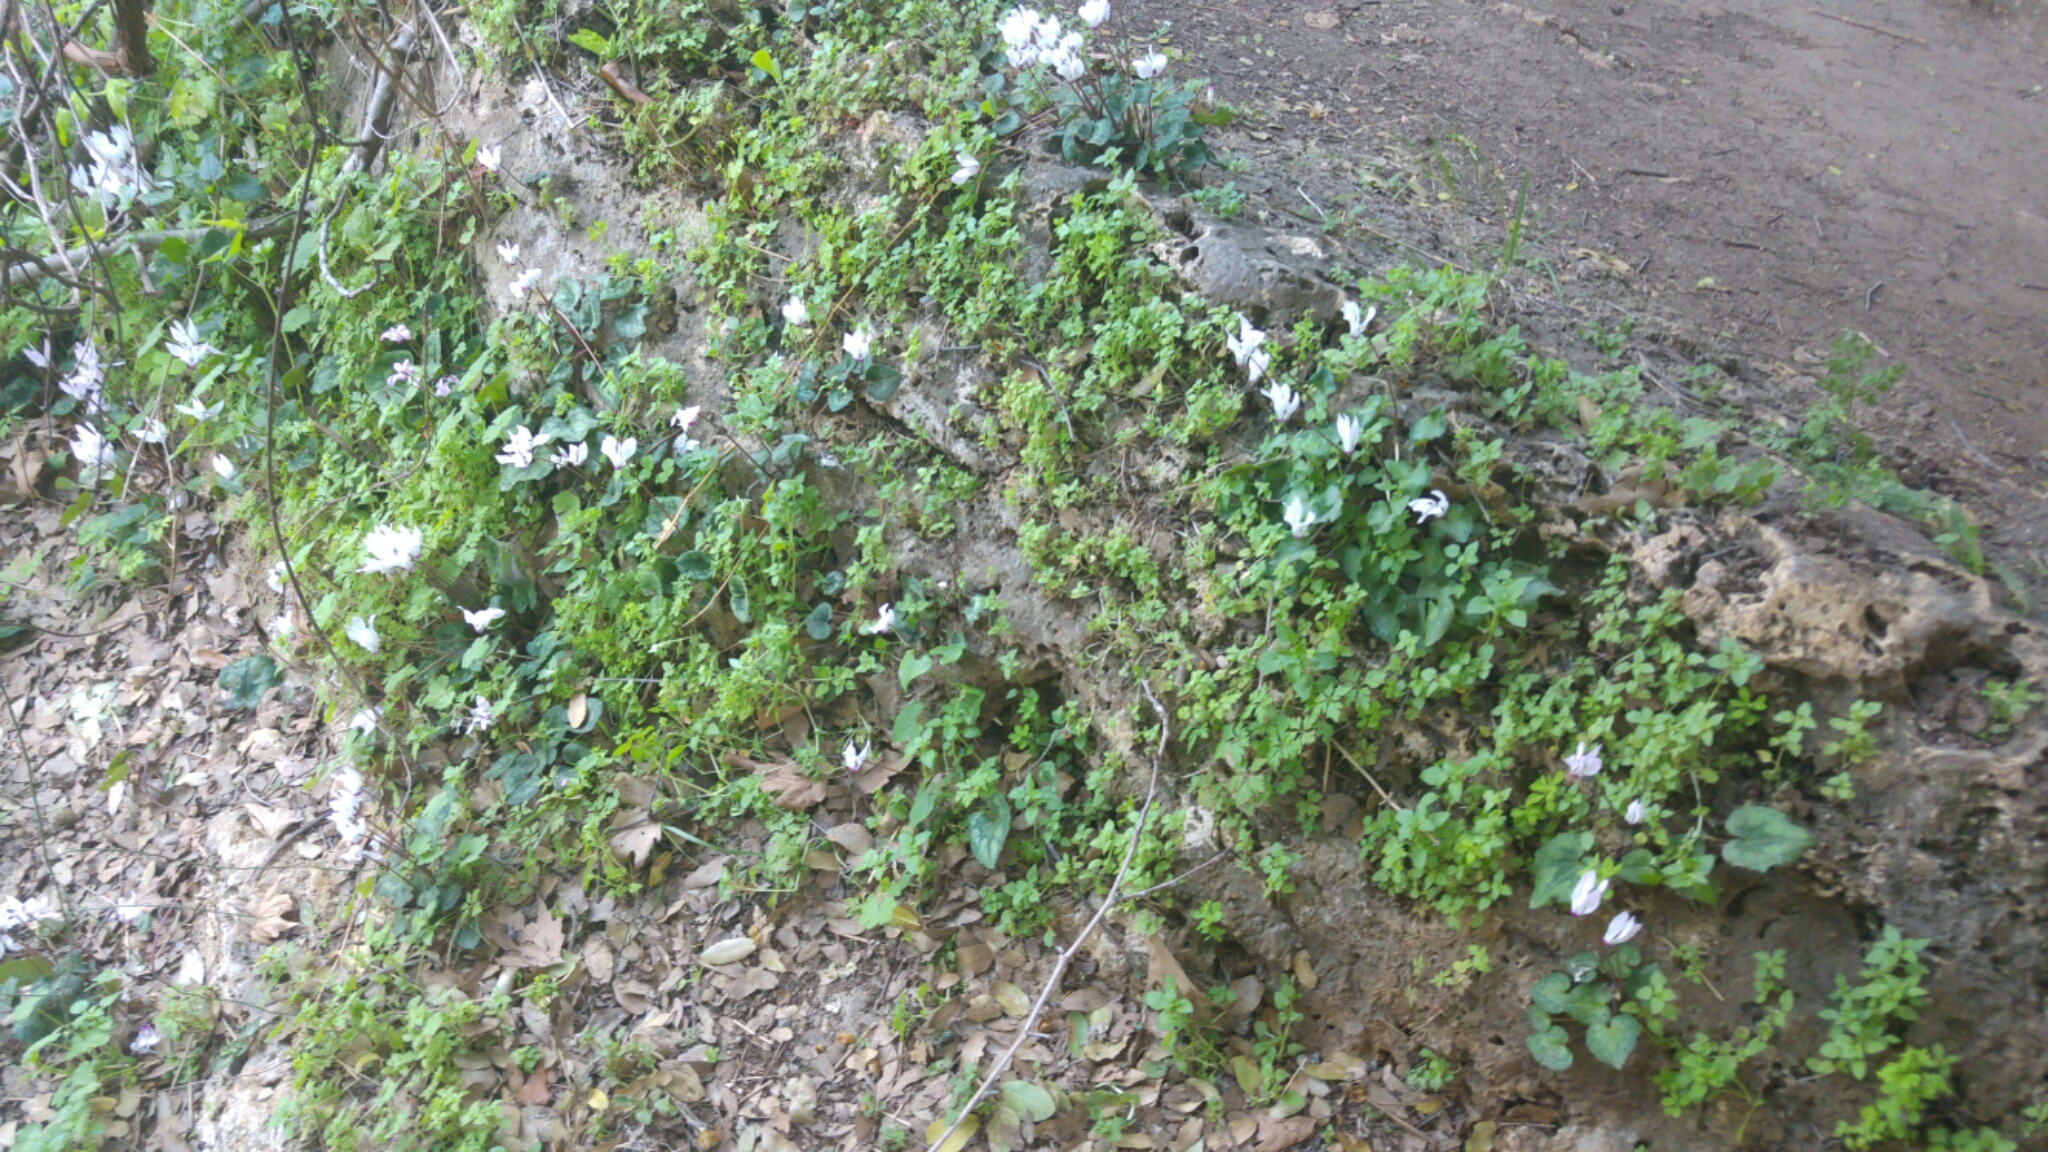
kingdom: Plantae
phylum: Tracheophyta
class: Magnoliopsida
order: Ericales
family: Primulaceae
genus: Cyclamen
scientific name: Cyclamen persicum
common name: Florist's cyclamen
